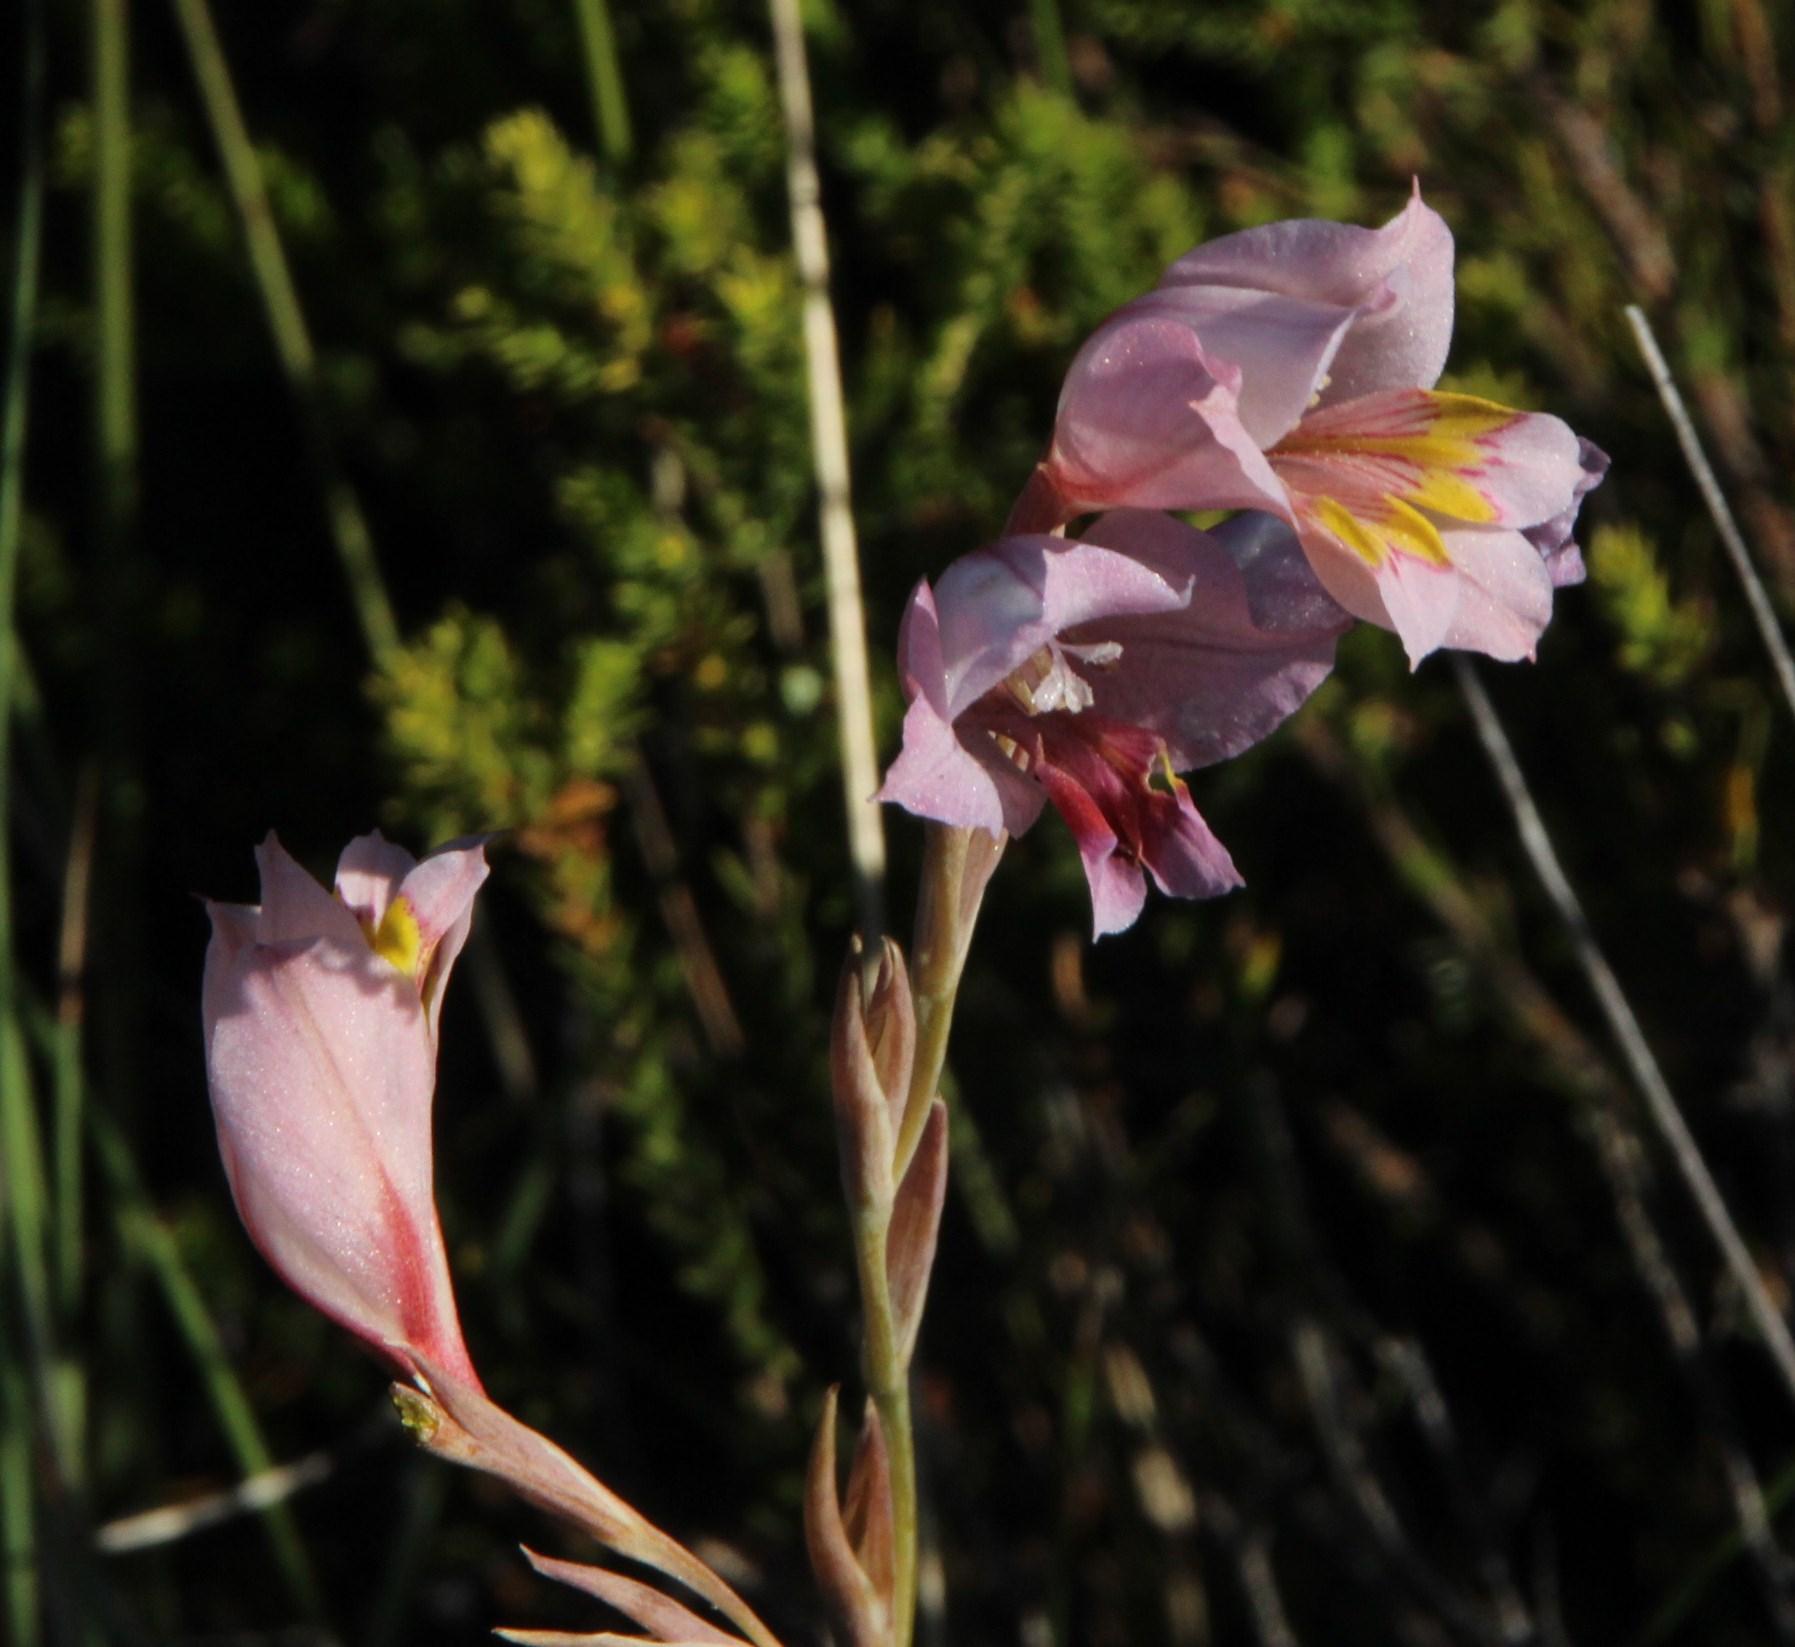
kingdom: Plantae
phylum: Tracheophyta
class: Liliopsida
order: Asparagales
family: Iridaceae
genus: Gladiolus
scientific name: Gladiolus brevifolius
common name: March pypie
